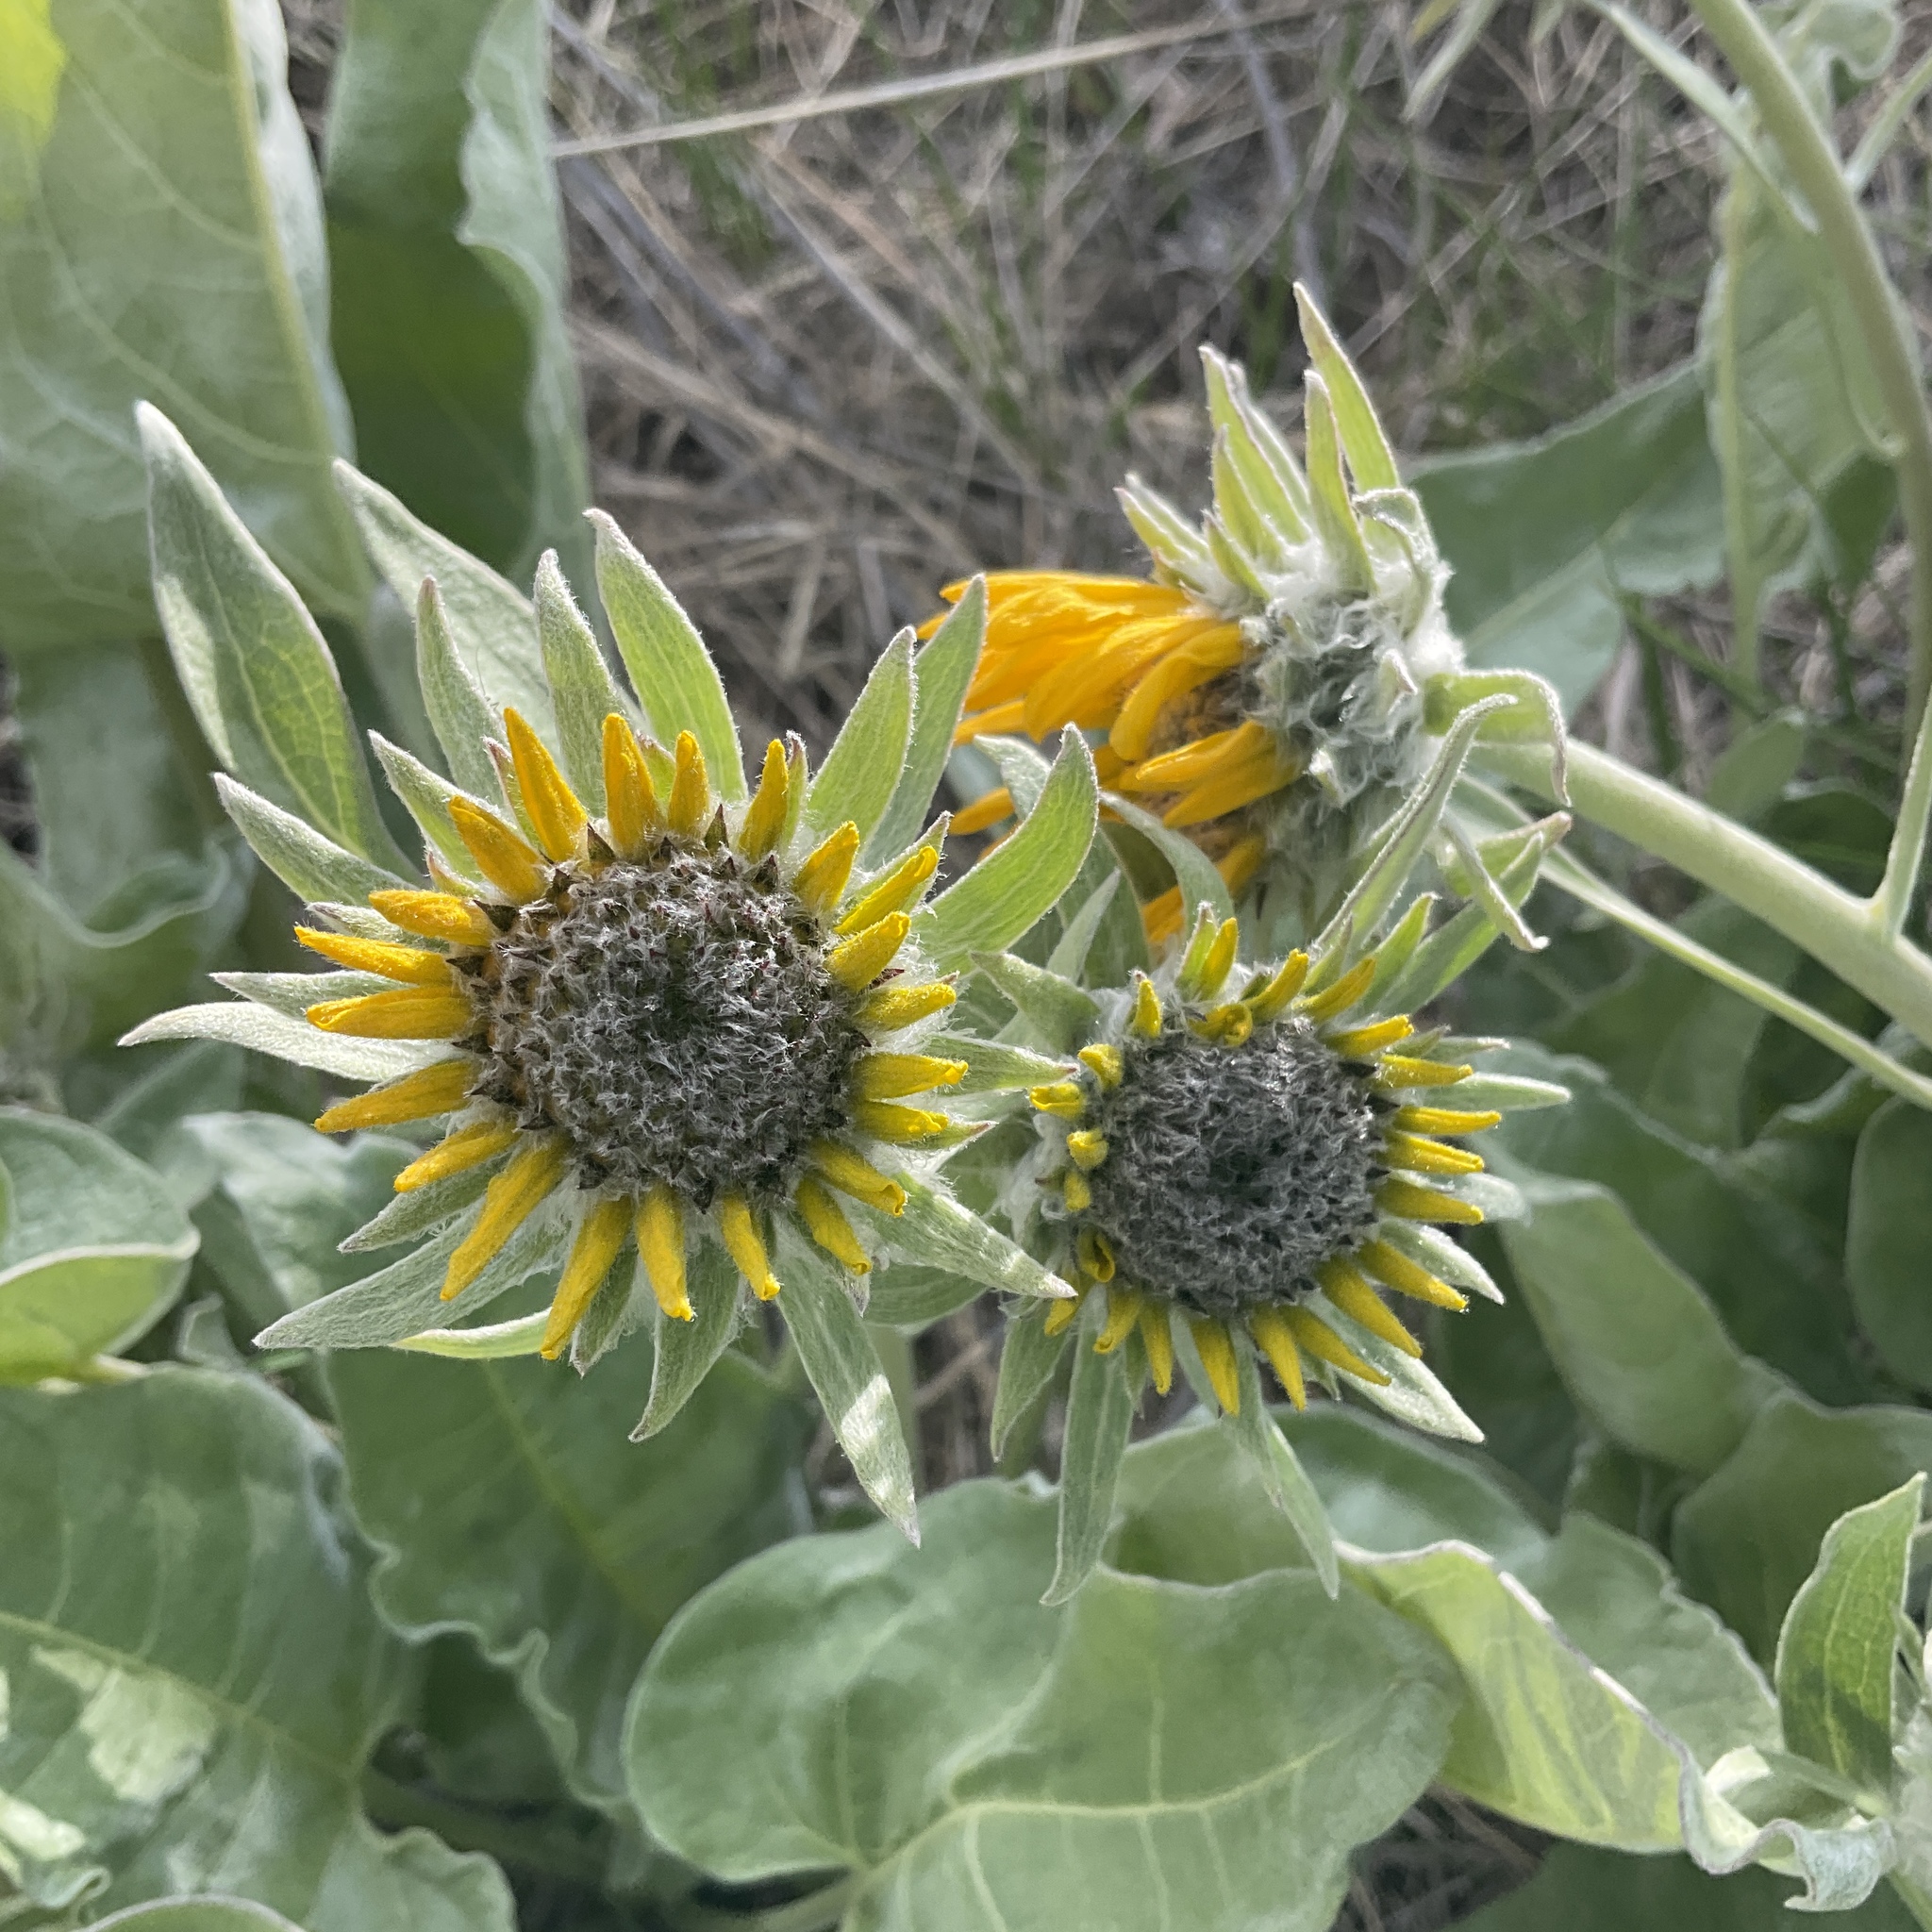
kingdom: Plantae
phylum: Tracheophyta
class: Magnoliopsida
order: Asterales
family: Asteraceae
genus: Wyethia
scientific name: Wyethia sagittata
